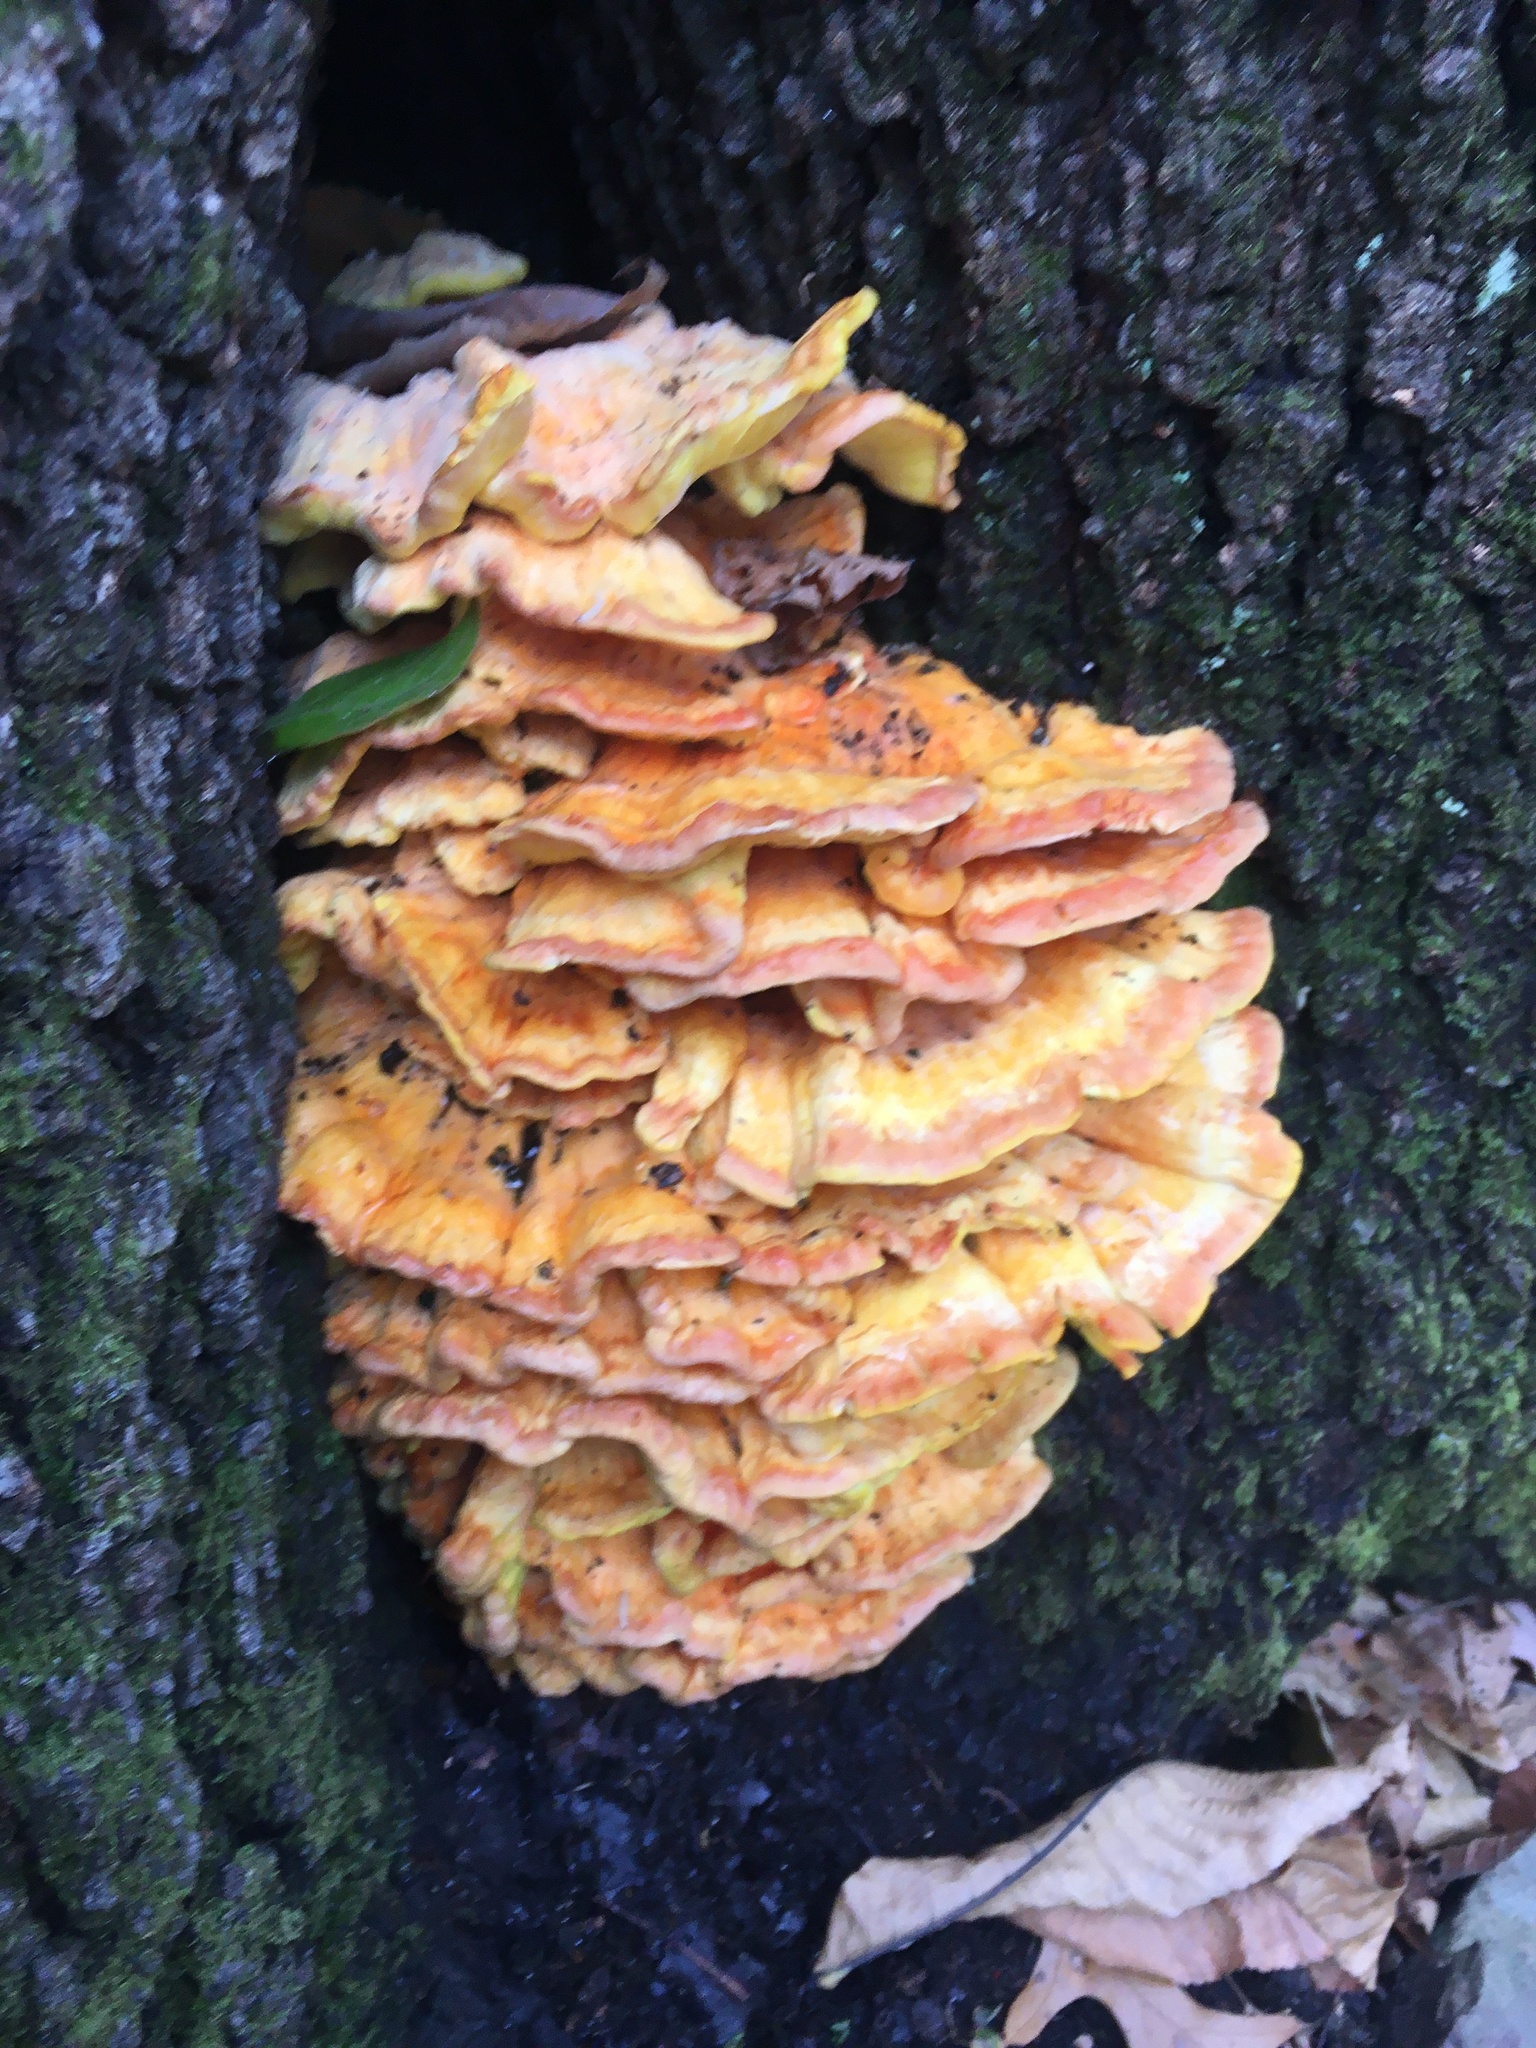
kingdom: Fungi
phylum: Basidiomycota
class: Agaricomycetes
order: Polyporales
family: Laetiporaceae
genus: Laetiporus
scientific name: Laetiporus sulphureus
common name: Chicken of the woods
